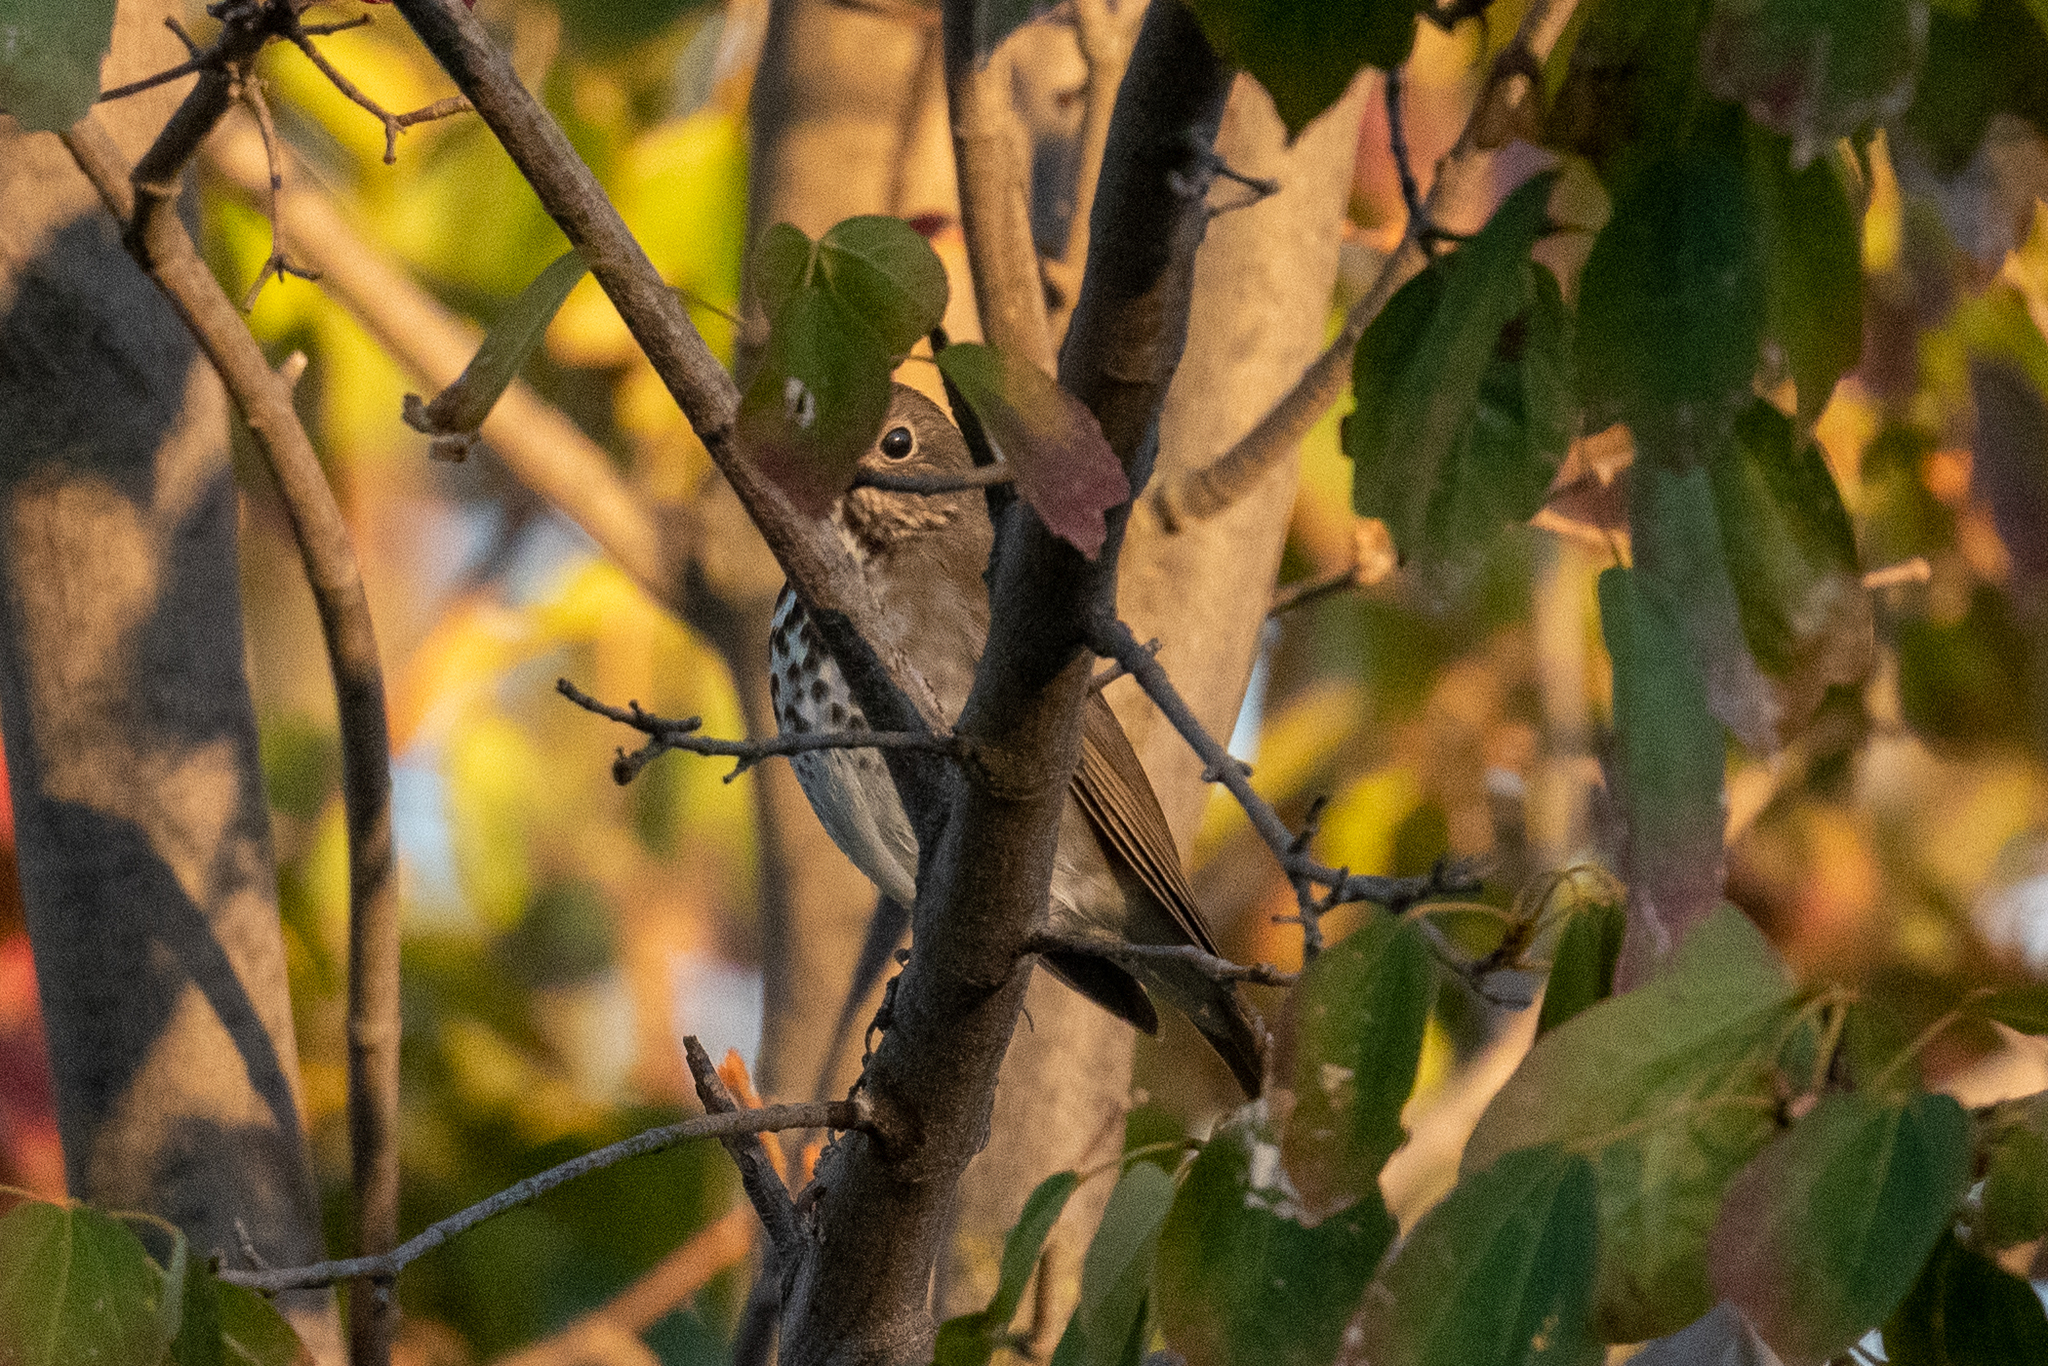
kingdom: Animalia
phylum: Chordata
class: Aves
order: Passeriformes
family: Turdidae
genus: Catharus
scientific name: Catharus guttatus
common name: Hermit thrush
